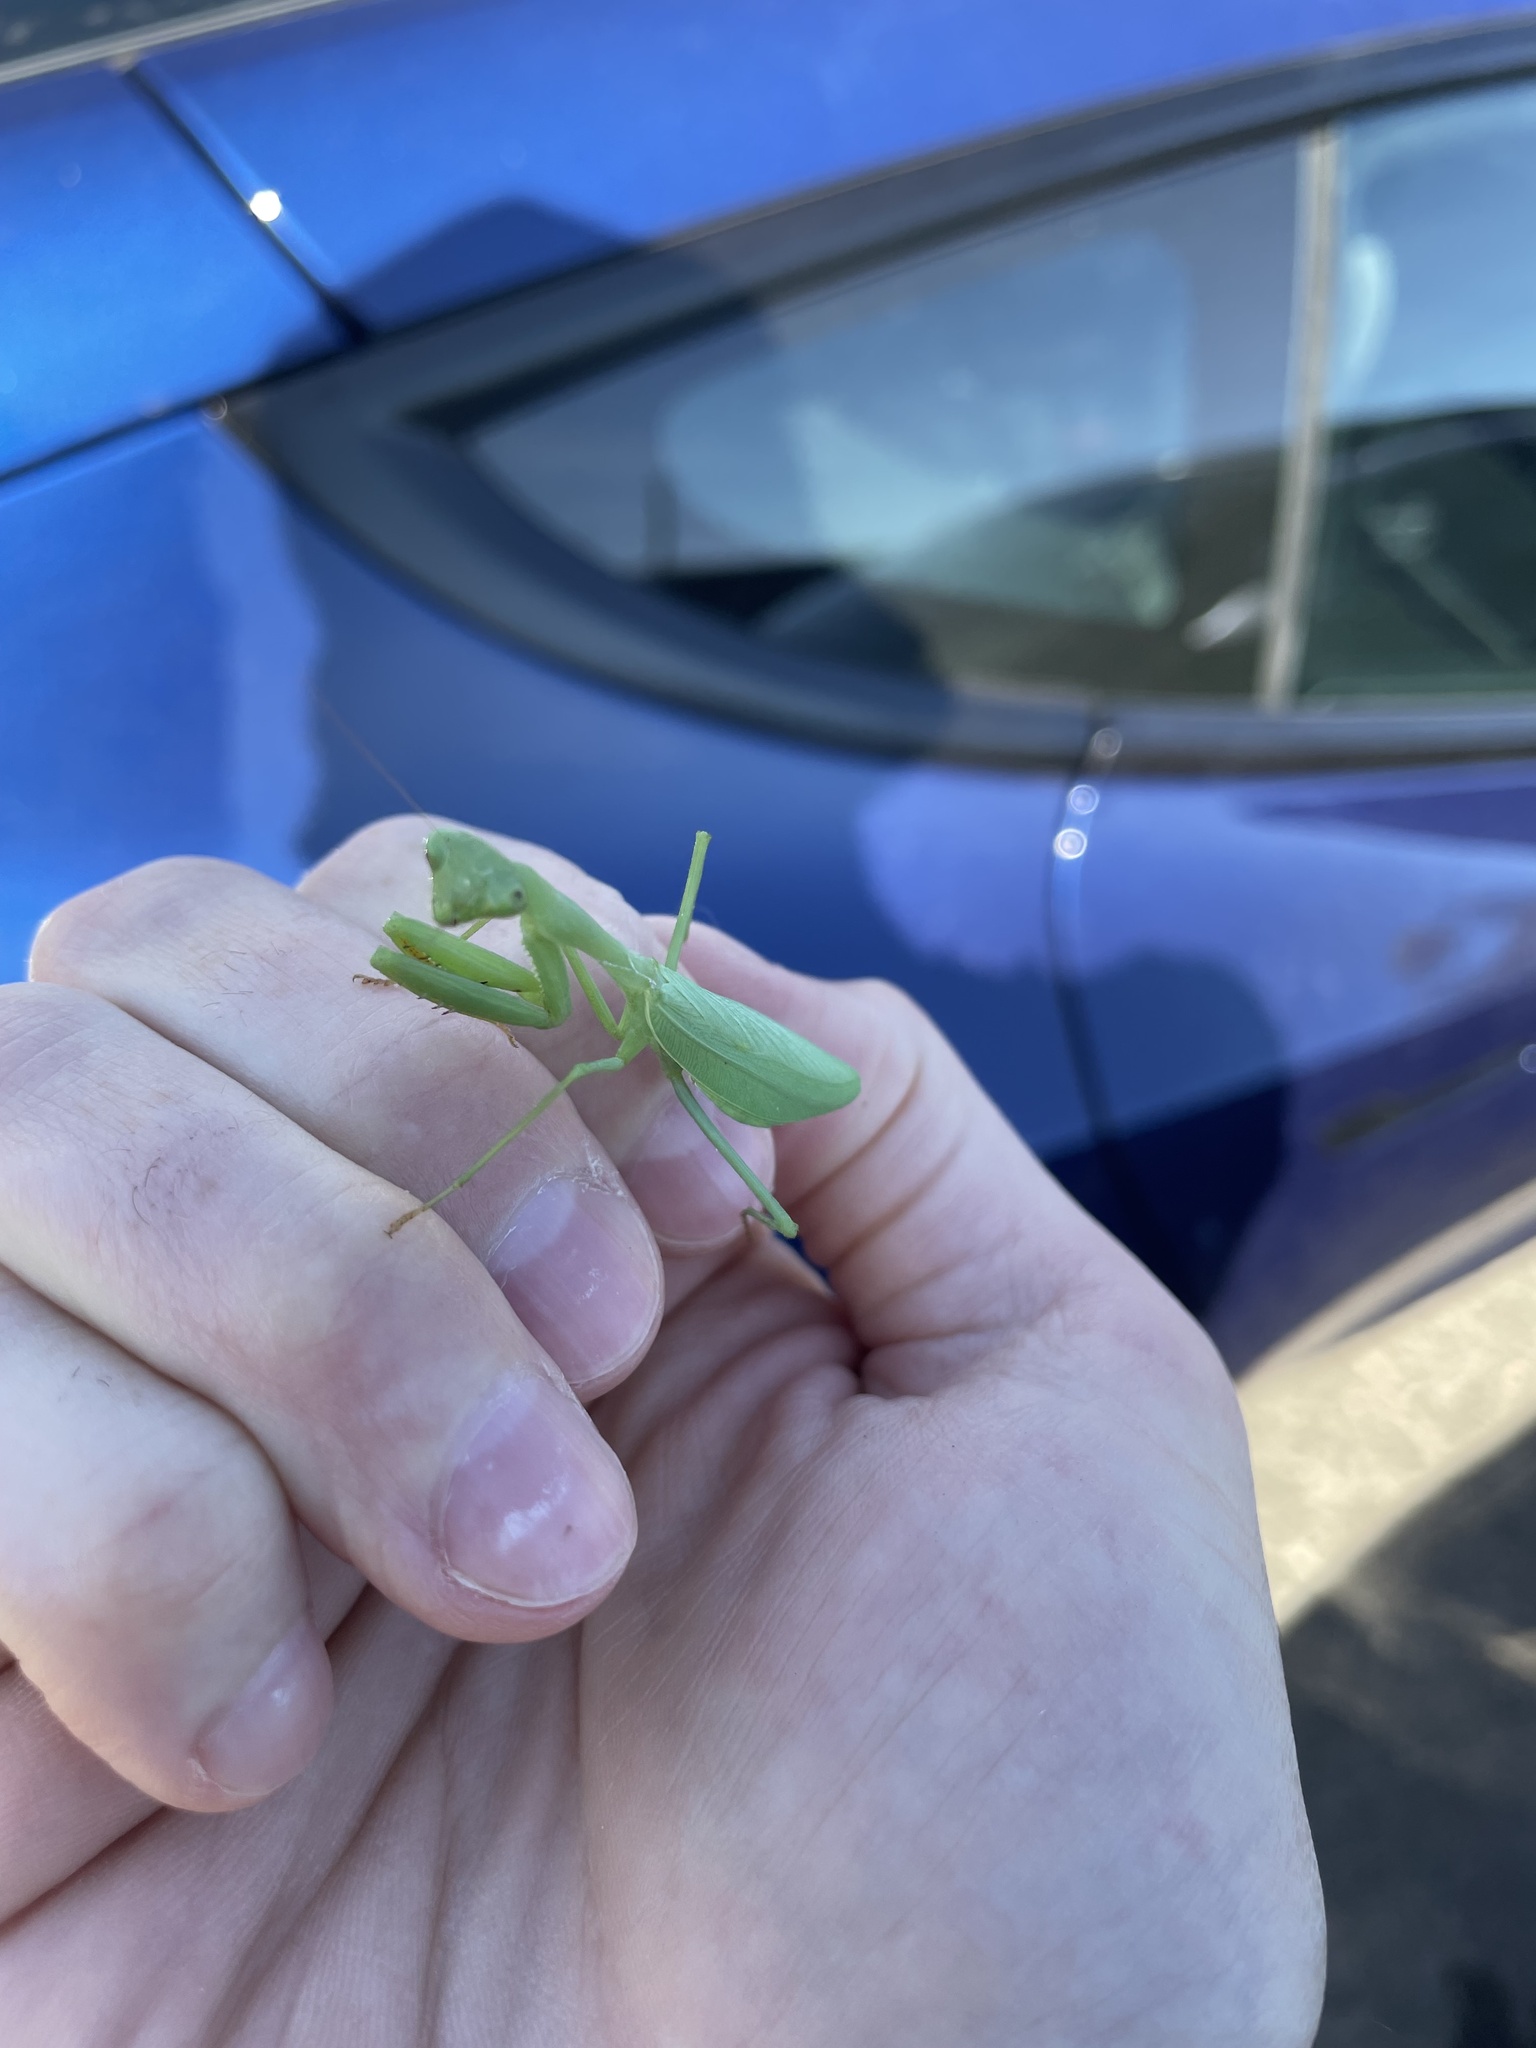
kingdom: Animalia
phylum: Arthropoda
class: Insecta
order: Mantodea
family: Miomantidae
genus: Miomantis
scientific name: Miomantis caffra
